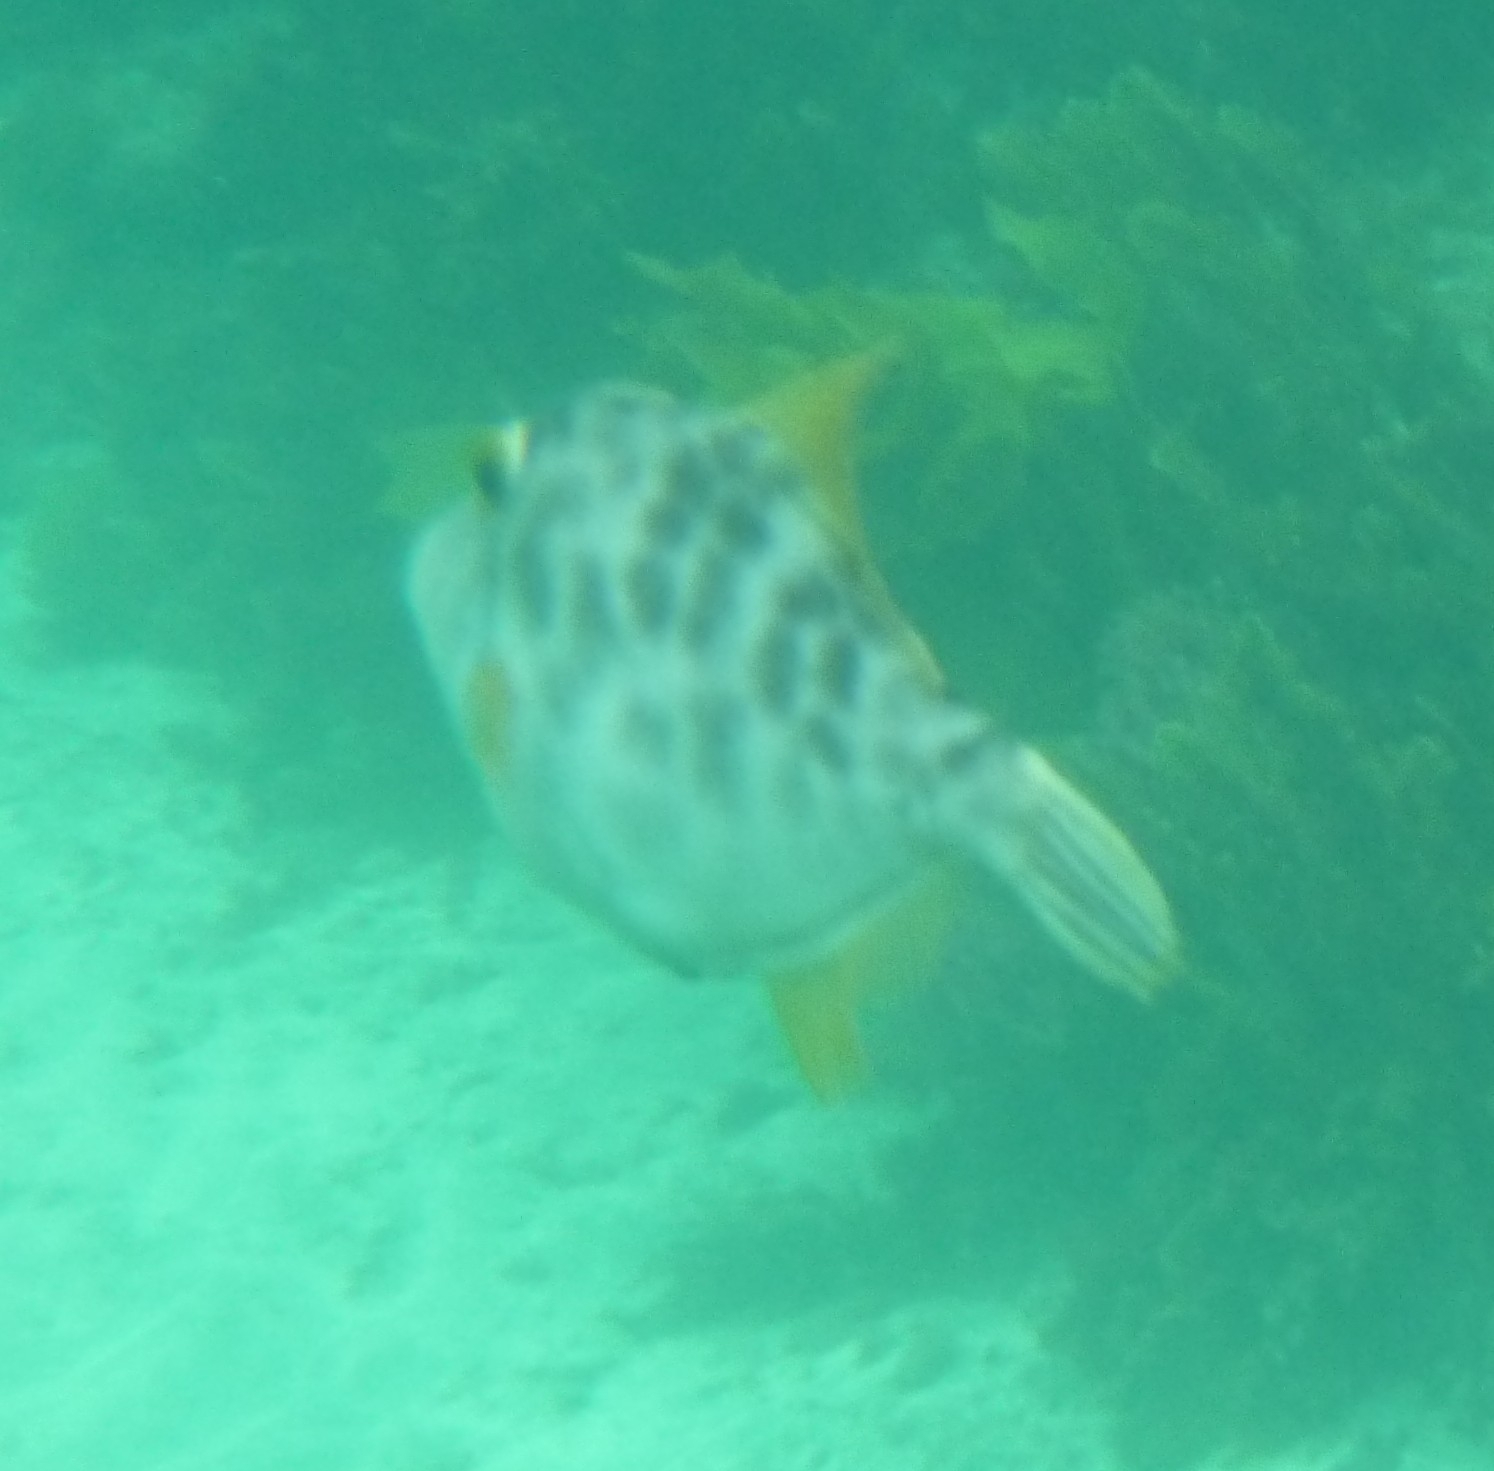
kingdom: Animalia
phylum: Chordata
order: Tetraodontiformes
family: Monacanthidae
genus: Meuschenia
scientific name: Meuschenia scaber
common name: Cosmopolitan leatherjacket
